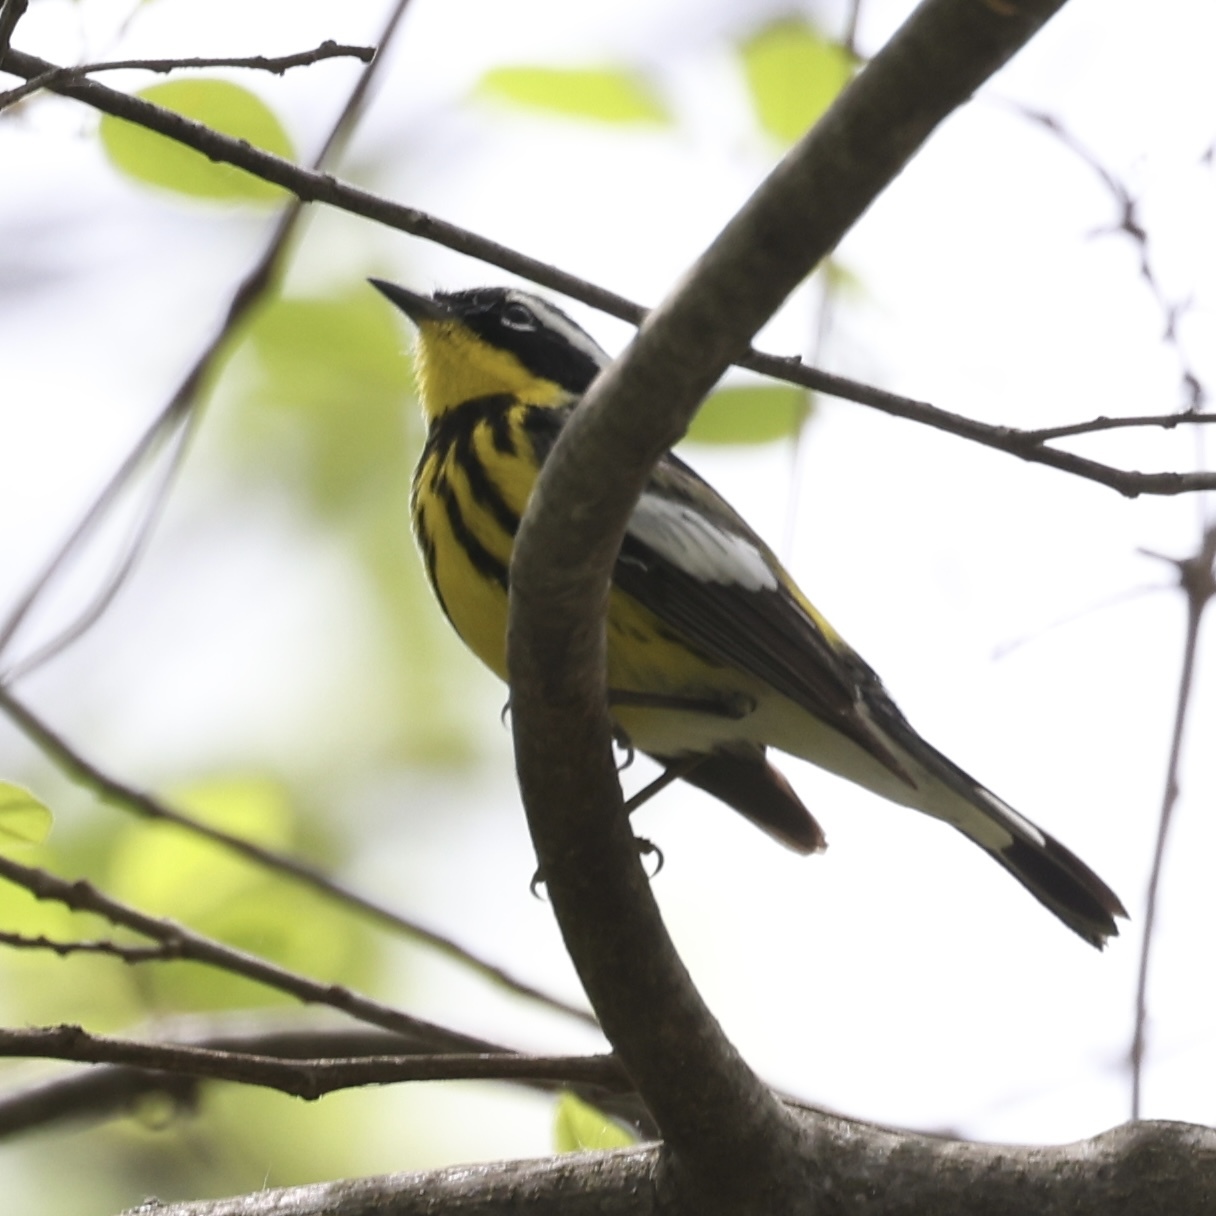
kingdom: Animalia
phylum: Chordata
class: Aves
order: Passeriformes
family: Parulidae
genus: Setophaga
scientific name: Setophaga magnolia
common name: Magnolia warbler
